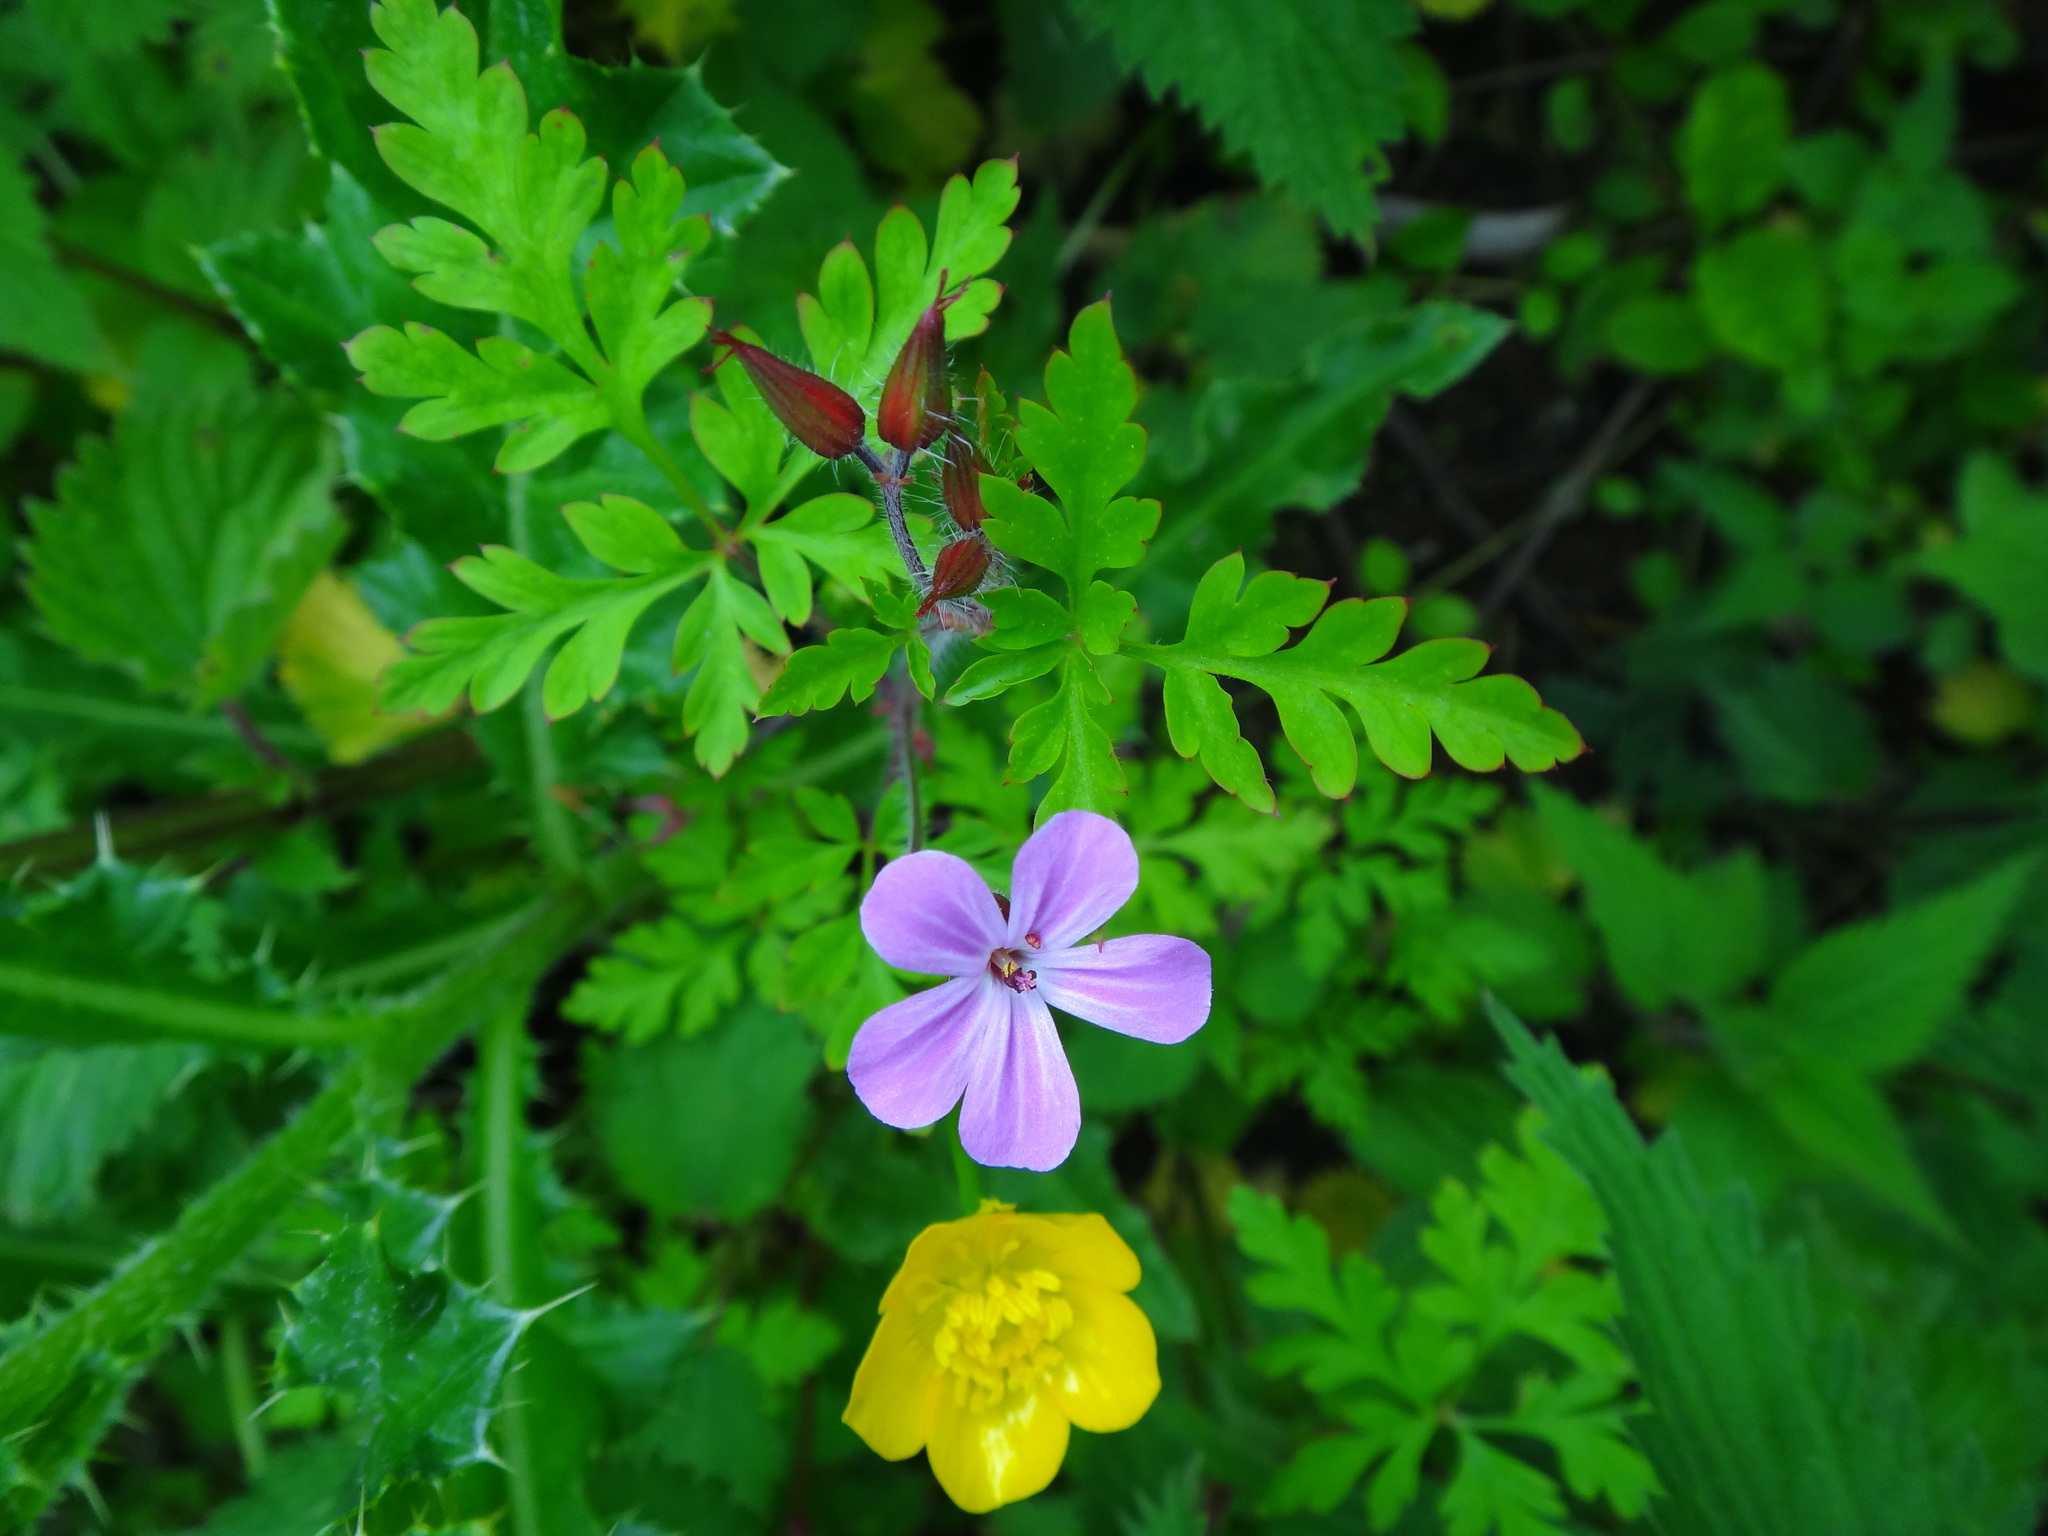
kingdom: Plantae
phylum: Tracheophyta
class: Magnoliopsida
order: Geraniales
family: Geraniaceae
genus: Geranium
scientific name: Geranium robertianum
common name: Herb-robert
